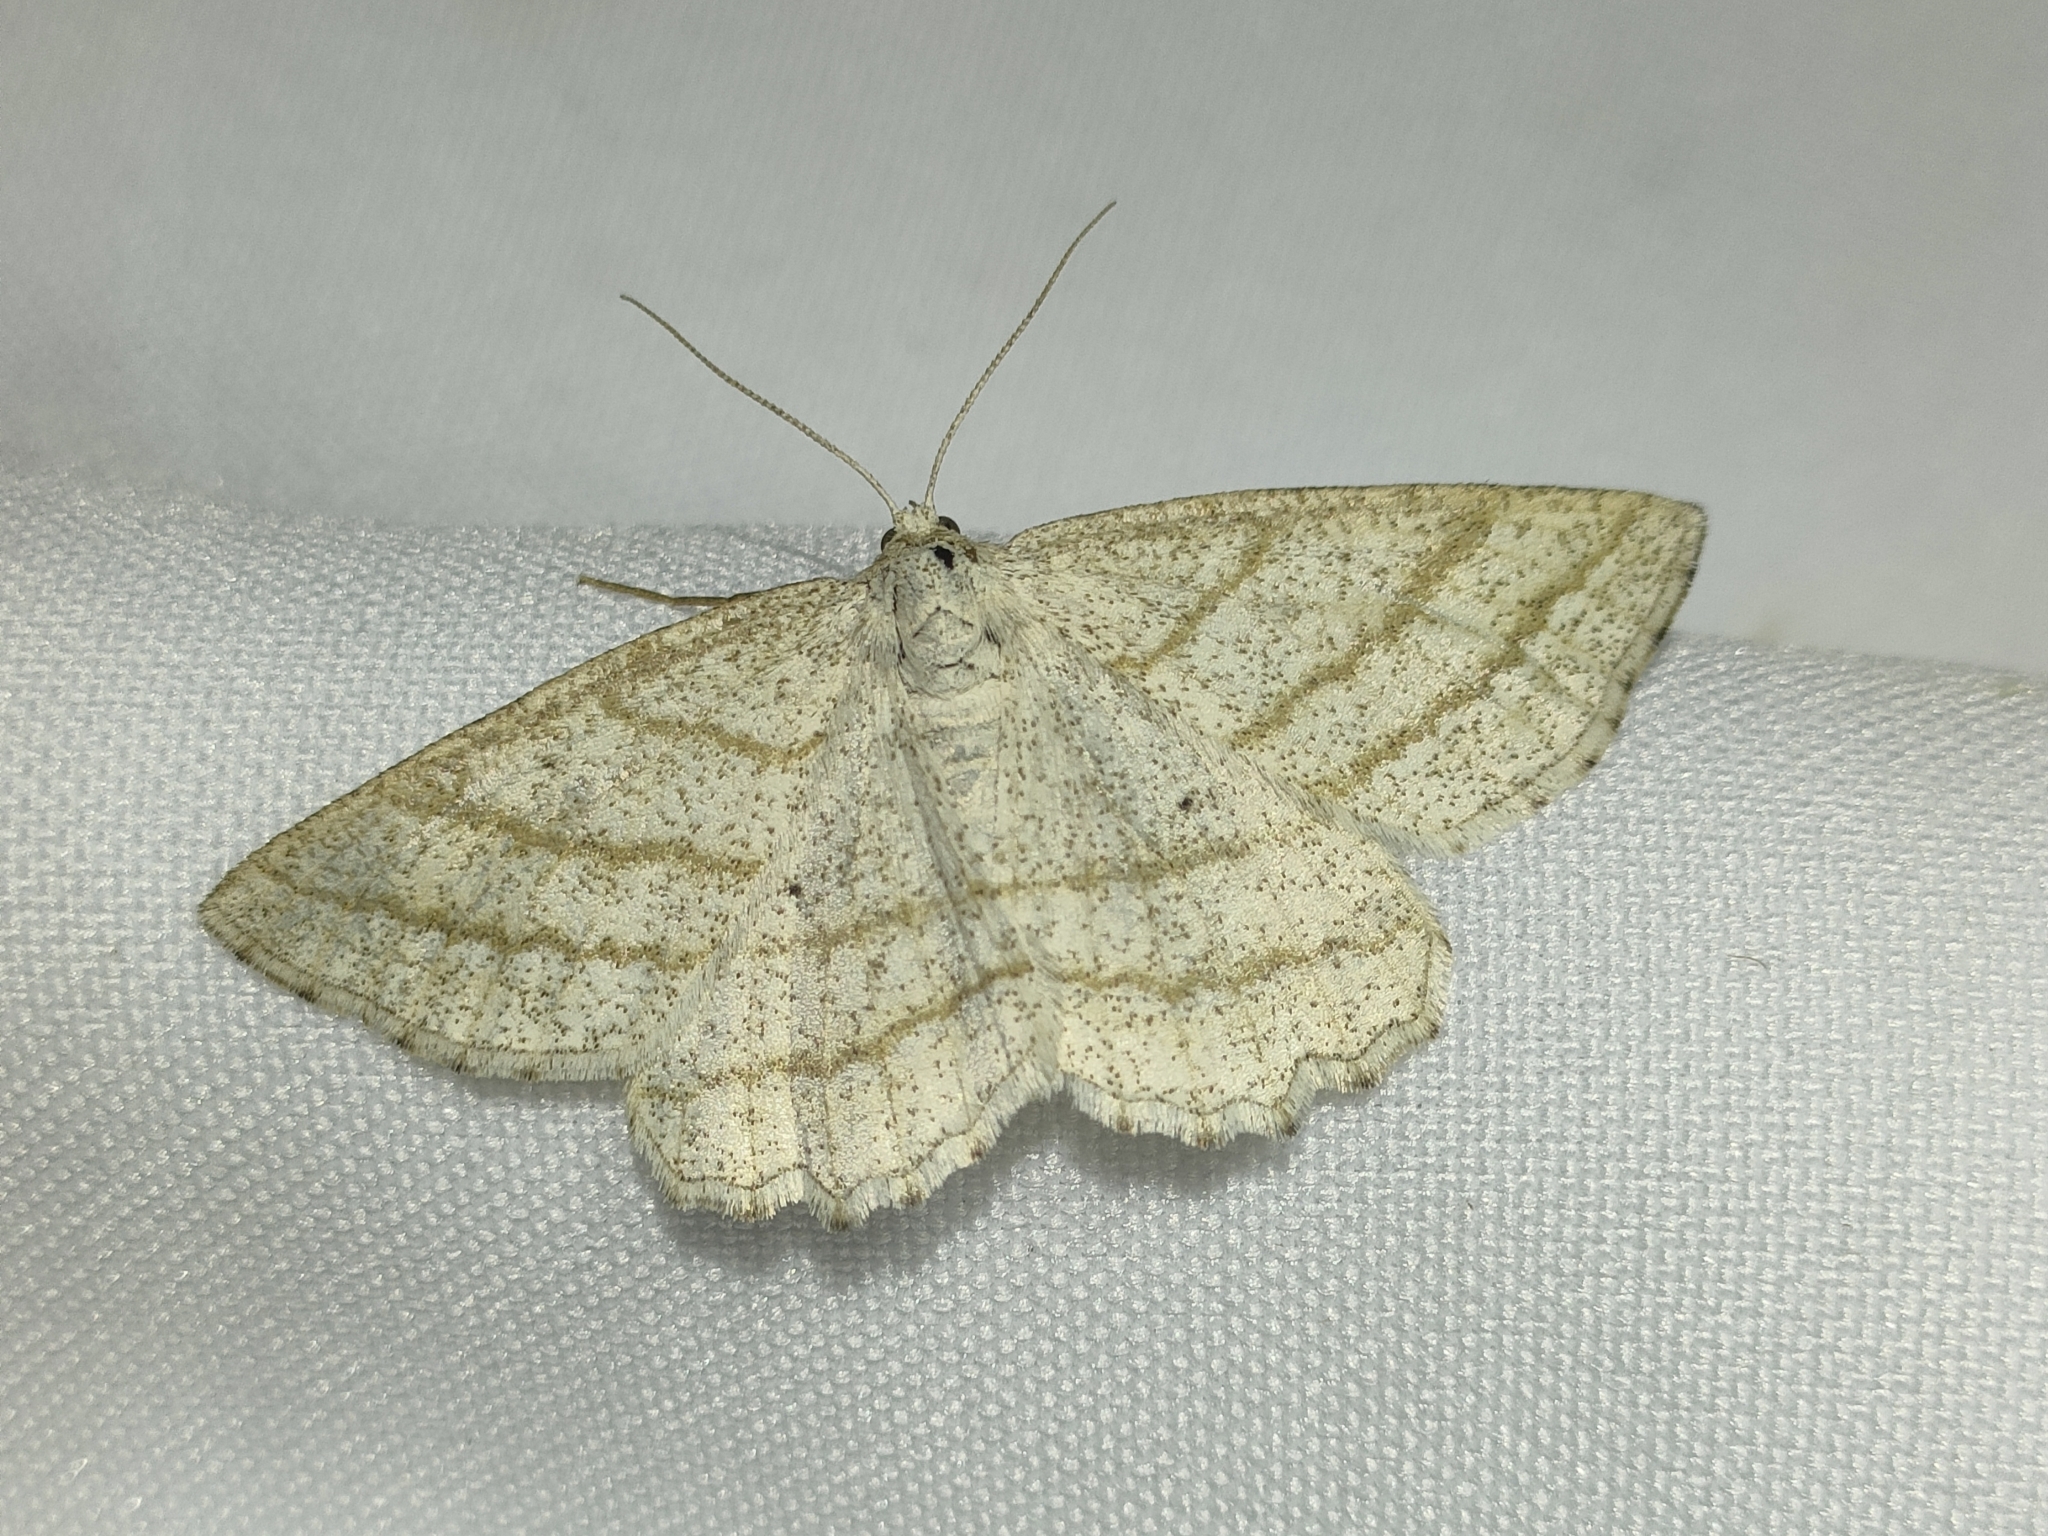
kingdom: Animalia
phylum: Arthropoda
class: Insecta
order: Lepidoptera
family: Geometridae
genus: Perconia
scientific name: Perconia strigillaria
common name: Grass wave
